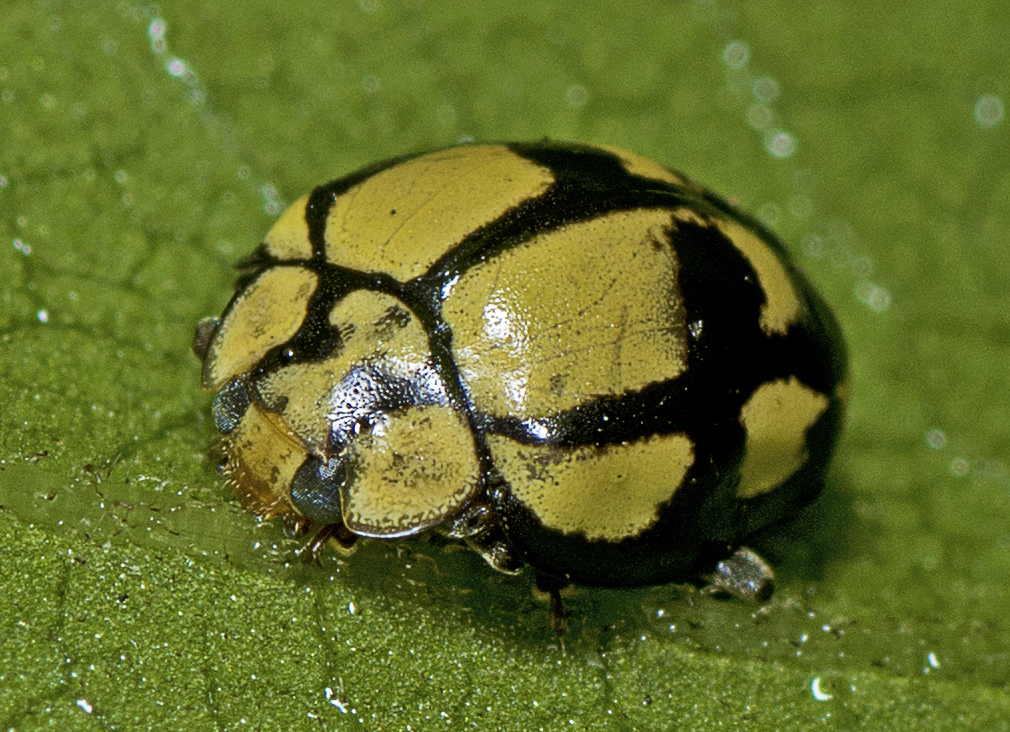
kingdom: Animalia
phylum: Arthropoda
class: Insecta
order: Coleoptera
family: Coccinellidae
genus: Harmonia
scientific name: Harmonia
